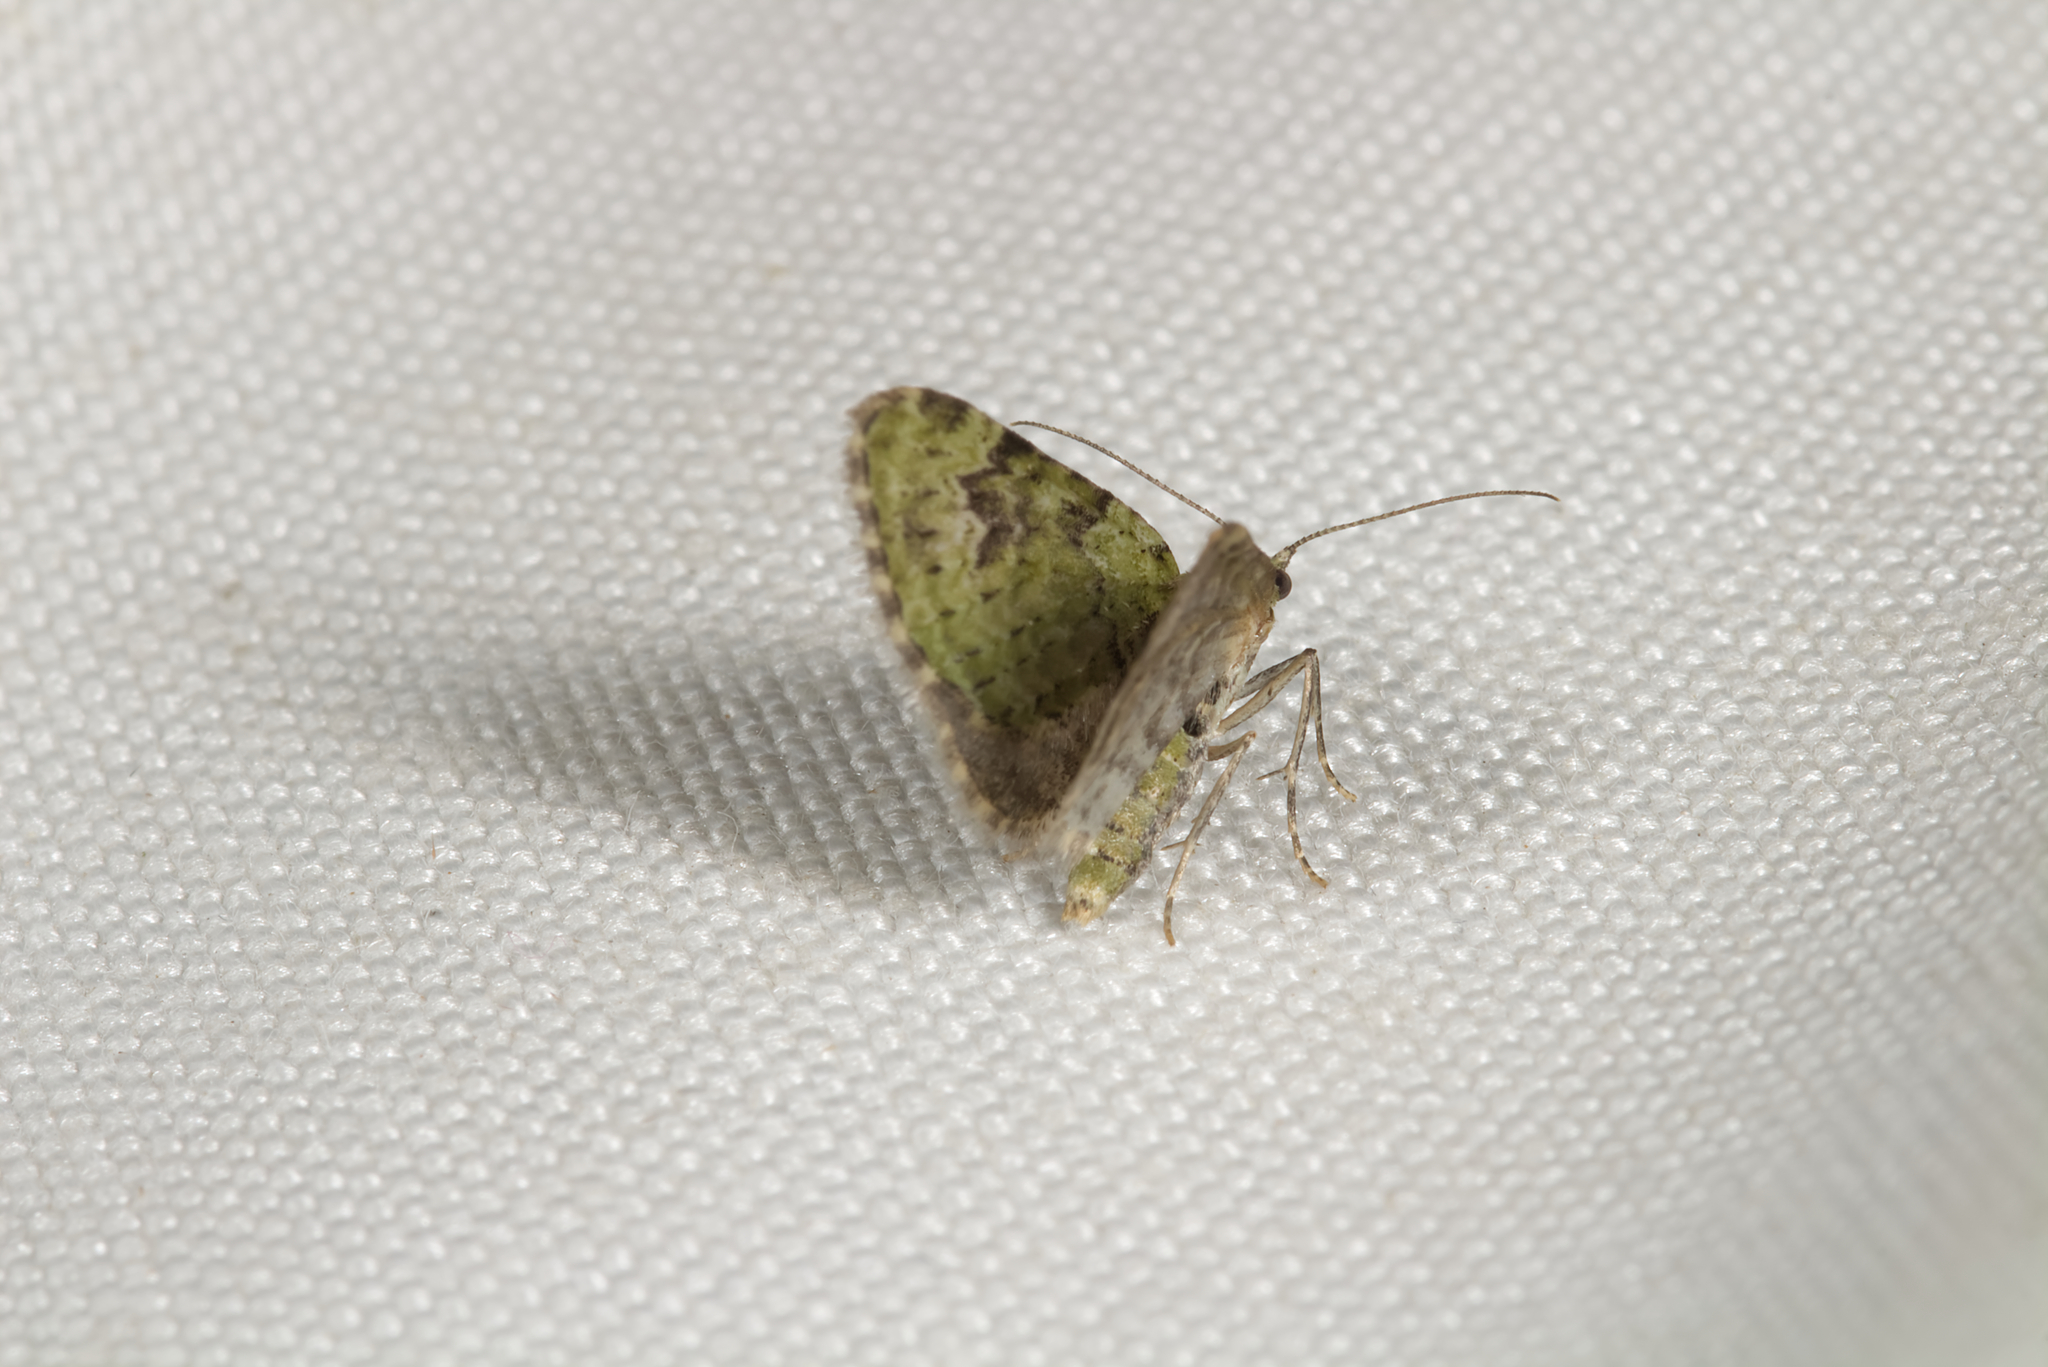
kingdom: Animalia
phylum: Arthropoda
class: Insecta
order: Lepidoptera
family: Geometridae
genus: Chloroclystis
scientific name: Chloroclystis v-ata
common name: V-pug
